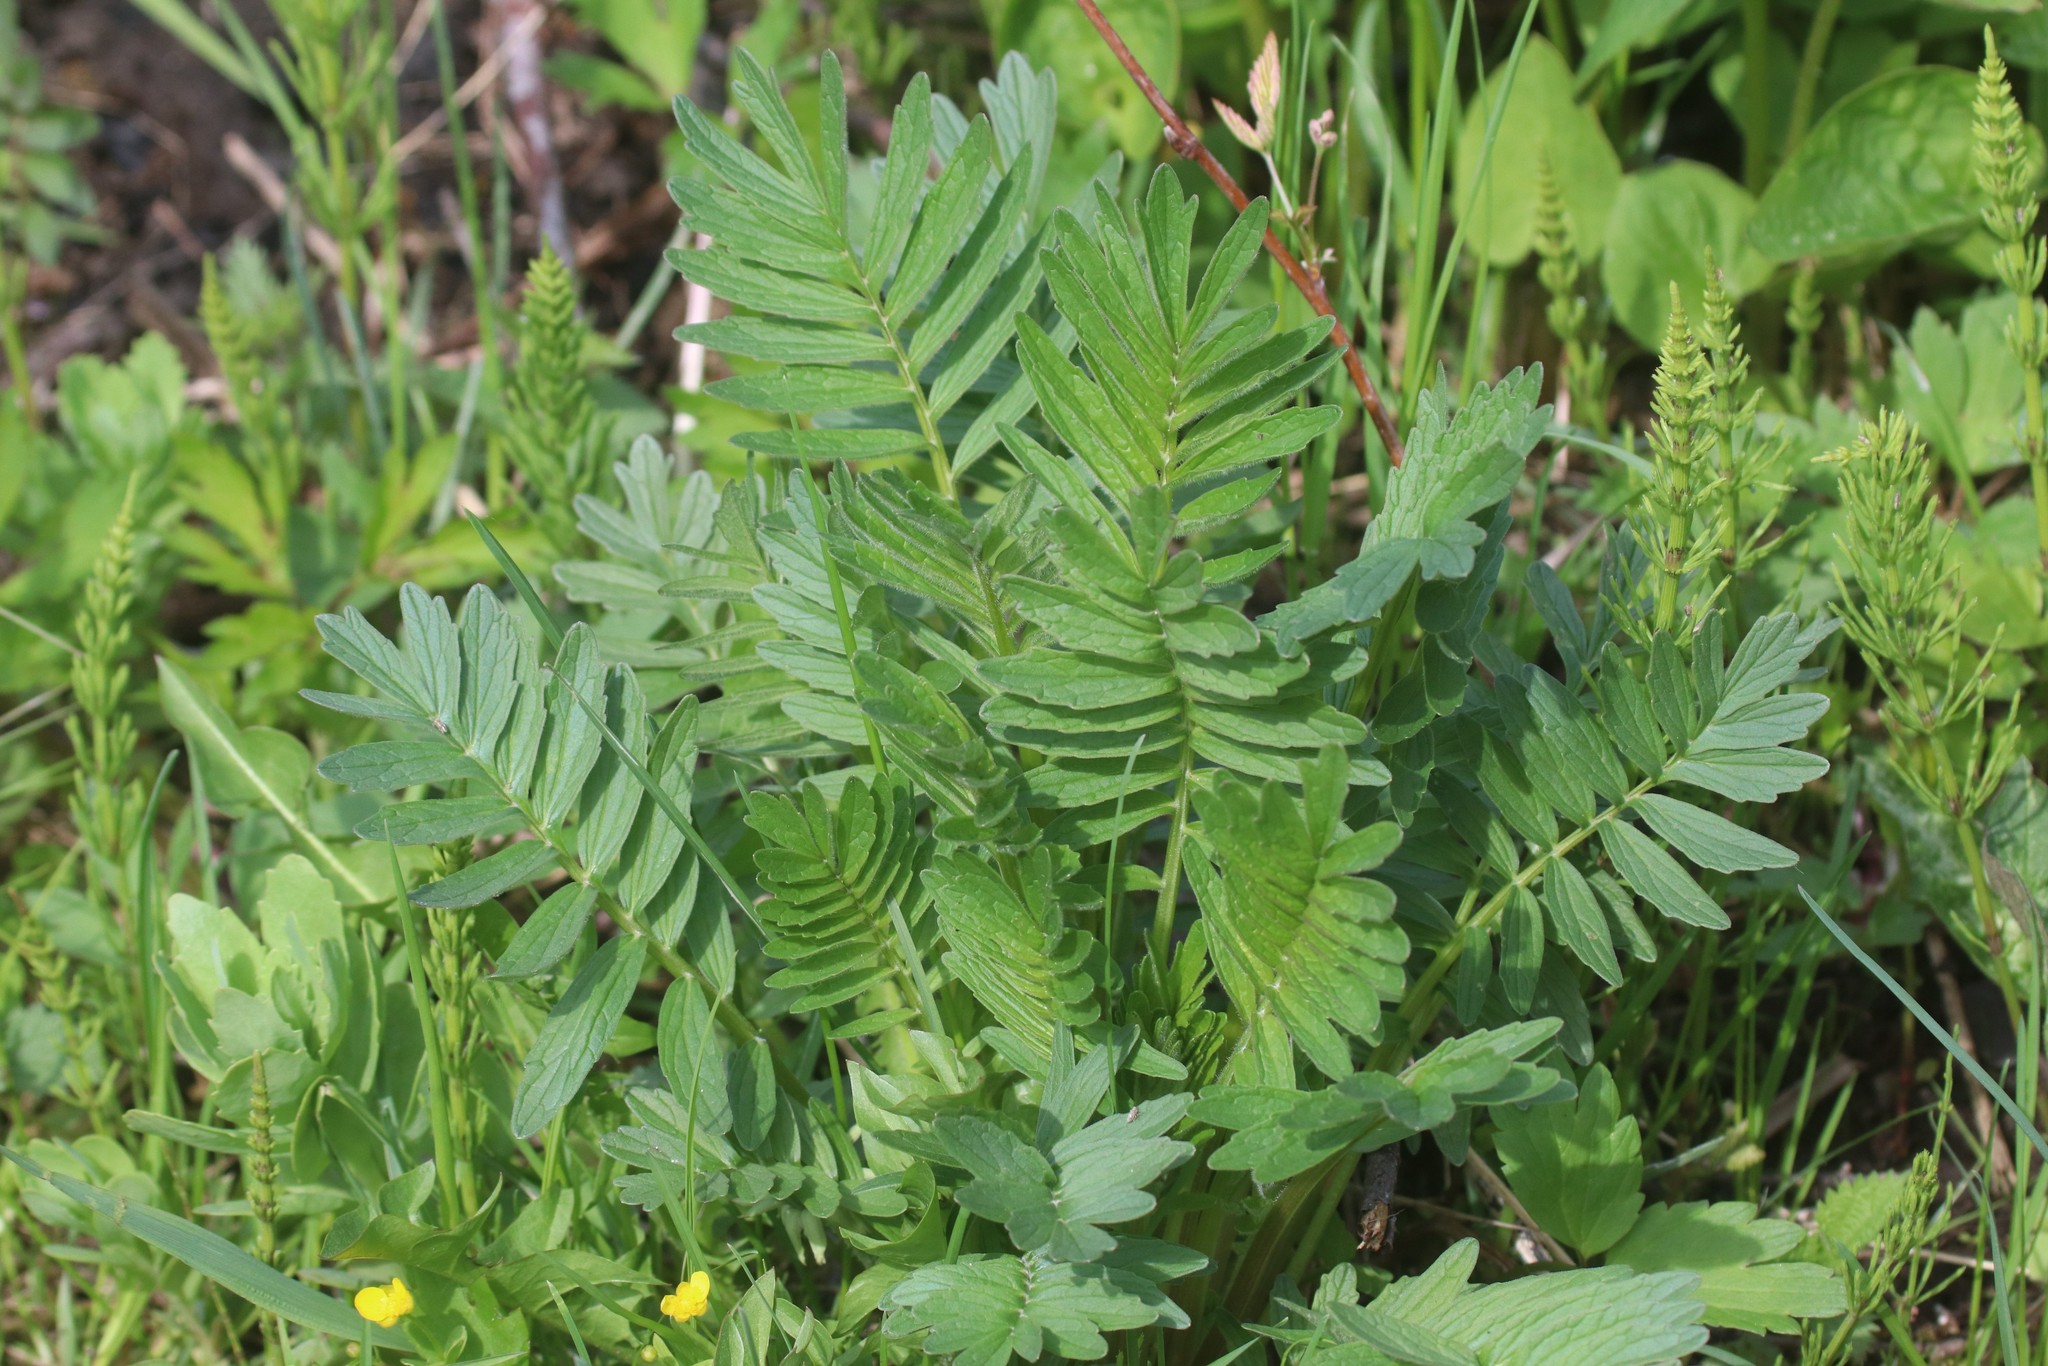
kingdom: Plantae
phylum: Tracheophyta
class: Magnoliopsida
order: Dipsacales
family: Caprifoliaceae
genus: Valeriana
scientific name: Valeriana officinalis
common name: Common valerian
